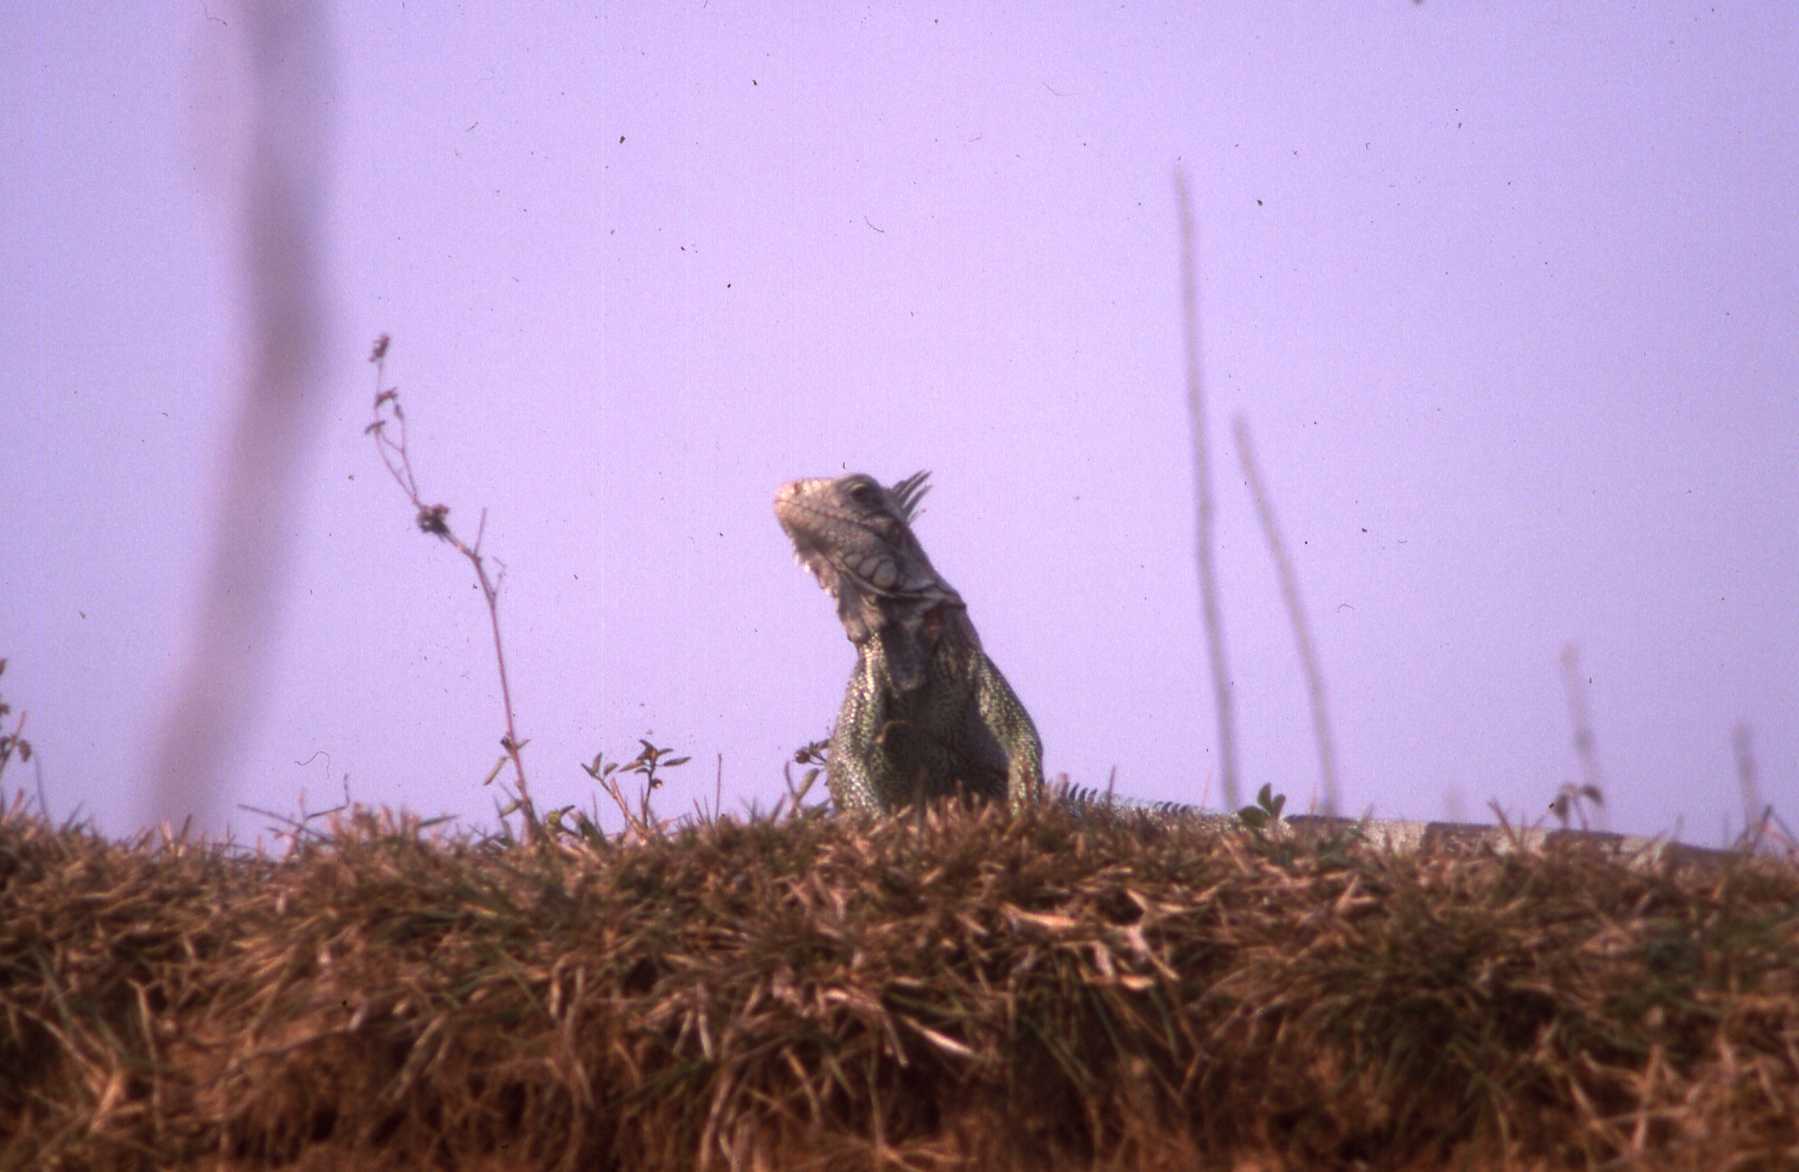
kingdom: Animalia
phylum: Chordata
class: Squamata
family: Iguanidae
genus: Iguana
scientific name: Iguana iguana
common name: Green iguana
